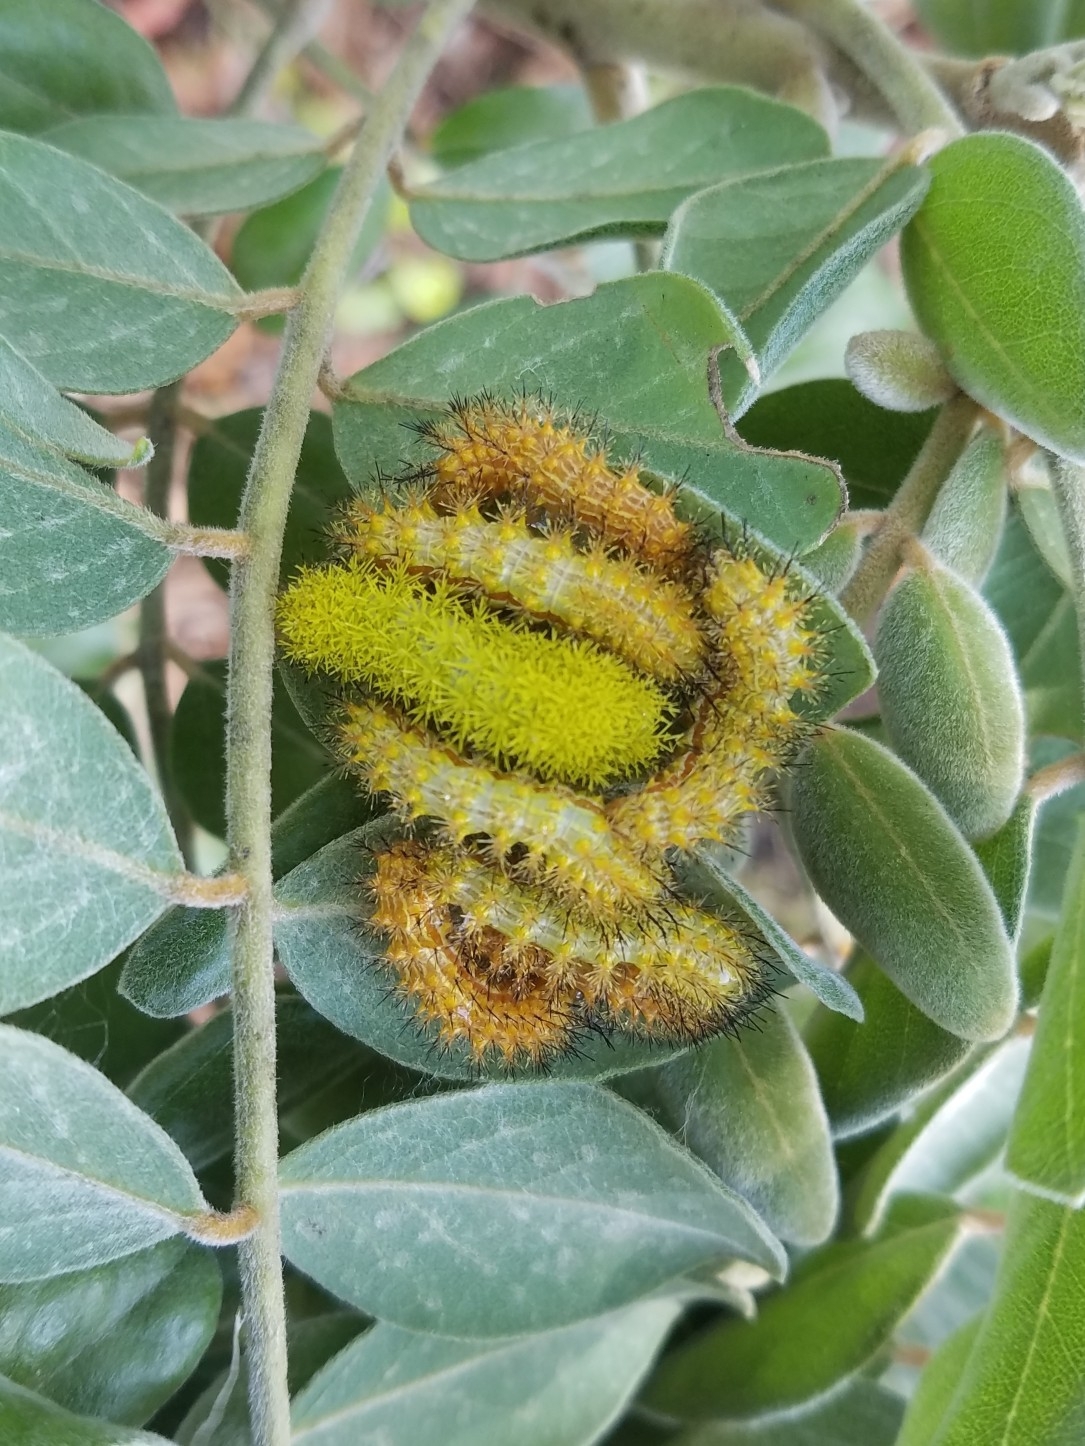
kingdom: Animalia
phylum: Arthropoda
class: Insecta
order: Lepidoptera
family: Saturniidae
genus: Automeris
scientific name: Automeris io
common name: Io moth
